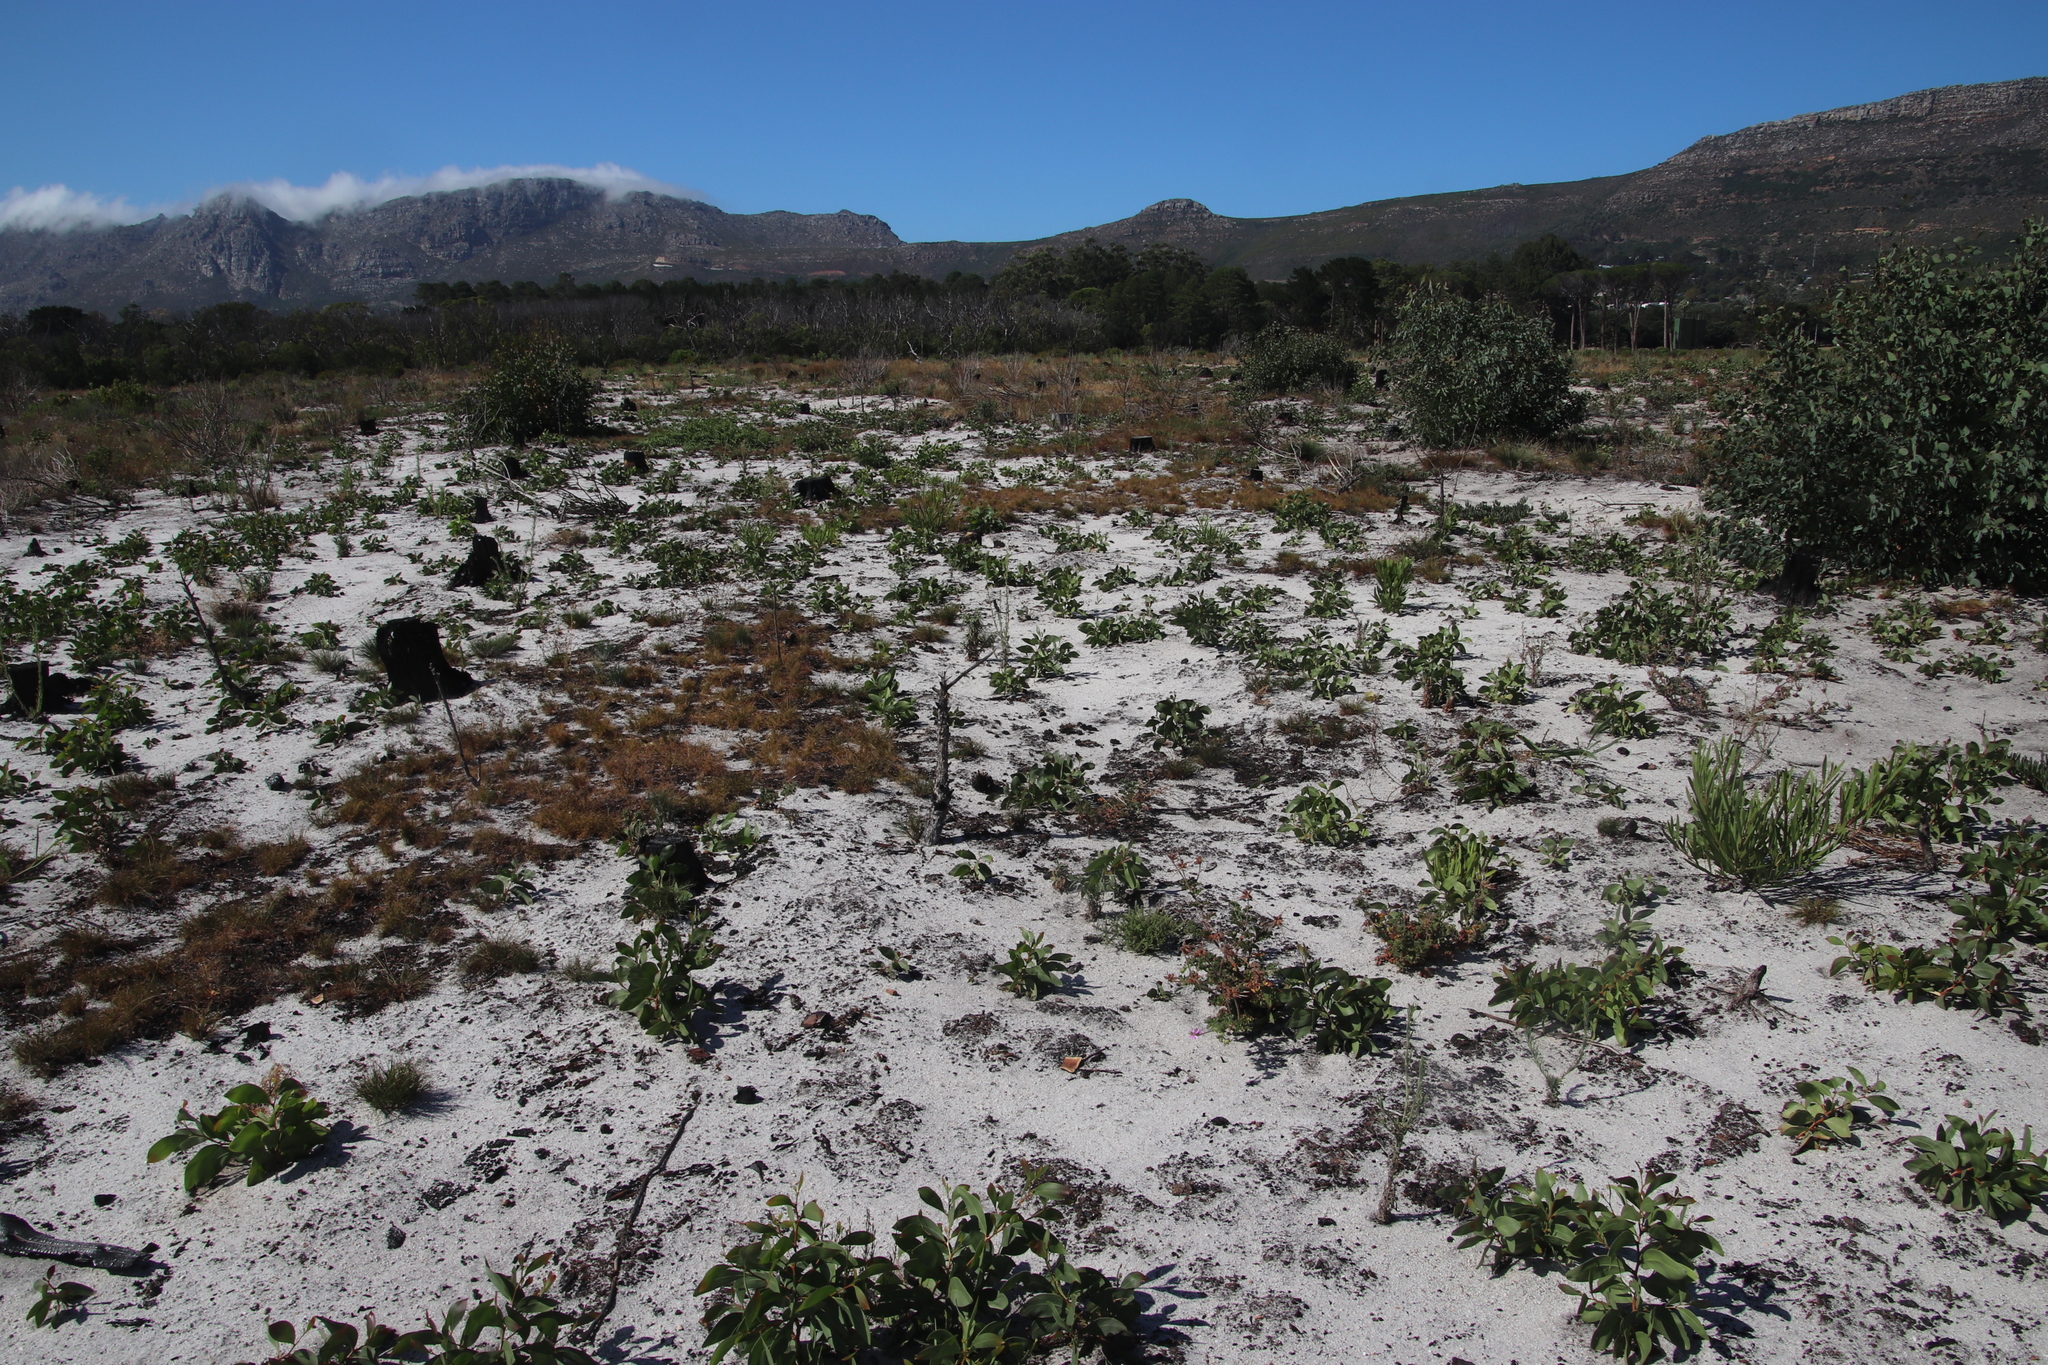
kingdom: Plantae
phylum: Tracheophyta
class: Magnoliopsida
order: Fabales
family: Fabaceae
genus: Acacia
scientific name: Acacia pycnantha
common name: Golden wattle
